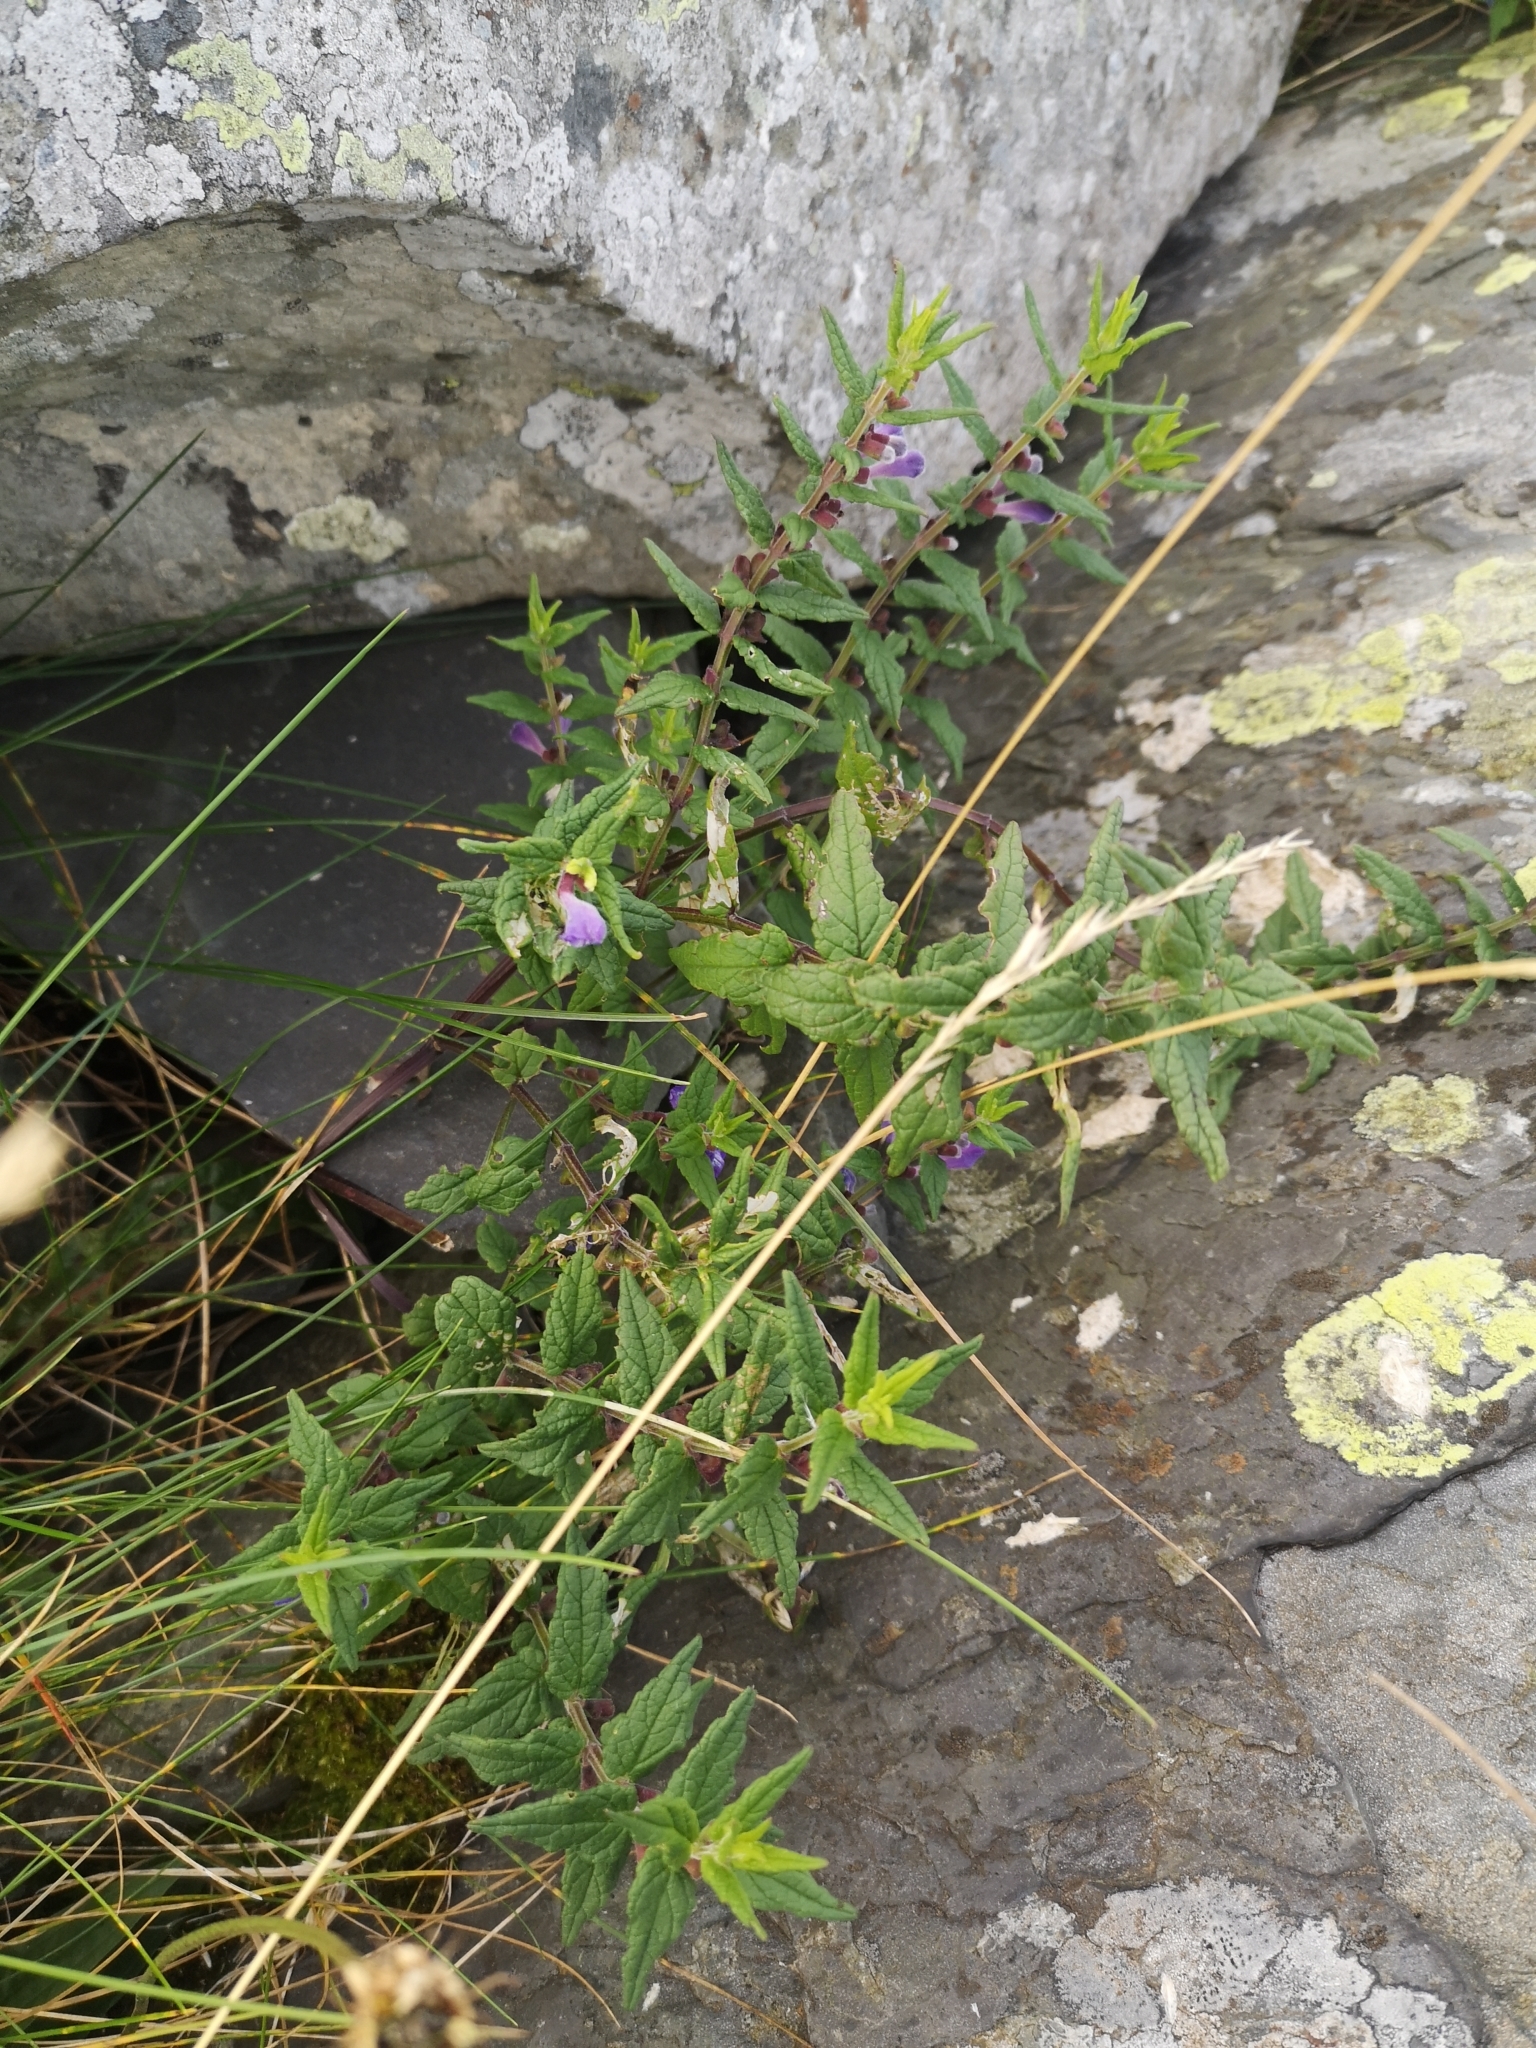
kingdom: Plantae
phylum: Tracheophyta
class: Magnoliopsida
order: Lamiales
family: Lamiaceae
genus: Scutellaria
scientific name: Scutellaria galericulata
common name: Skullcap
